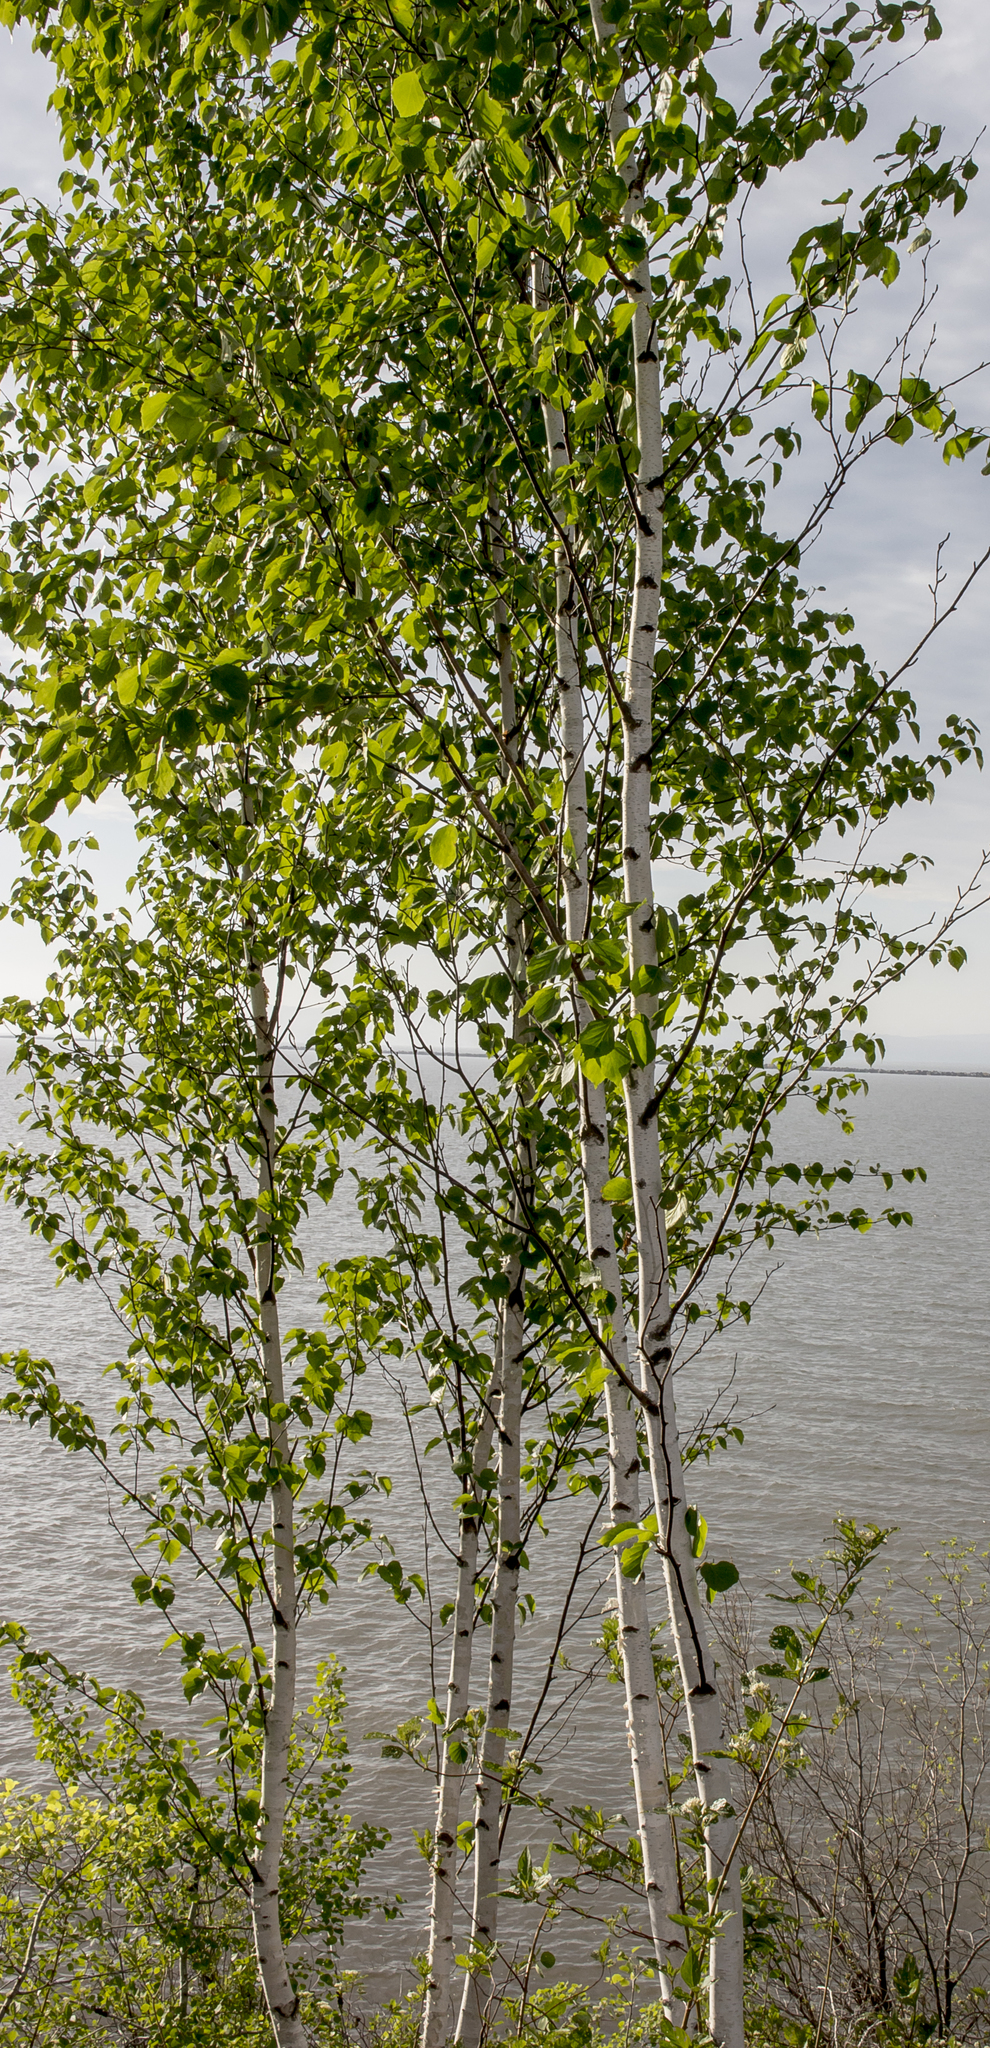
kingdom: Plantae
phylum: Tracheophyta
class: Magnoliopsida
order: Fagales
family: Betulaceae
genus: Betula
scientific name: Betula papyrifera
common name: Paper birch
